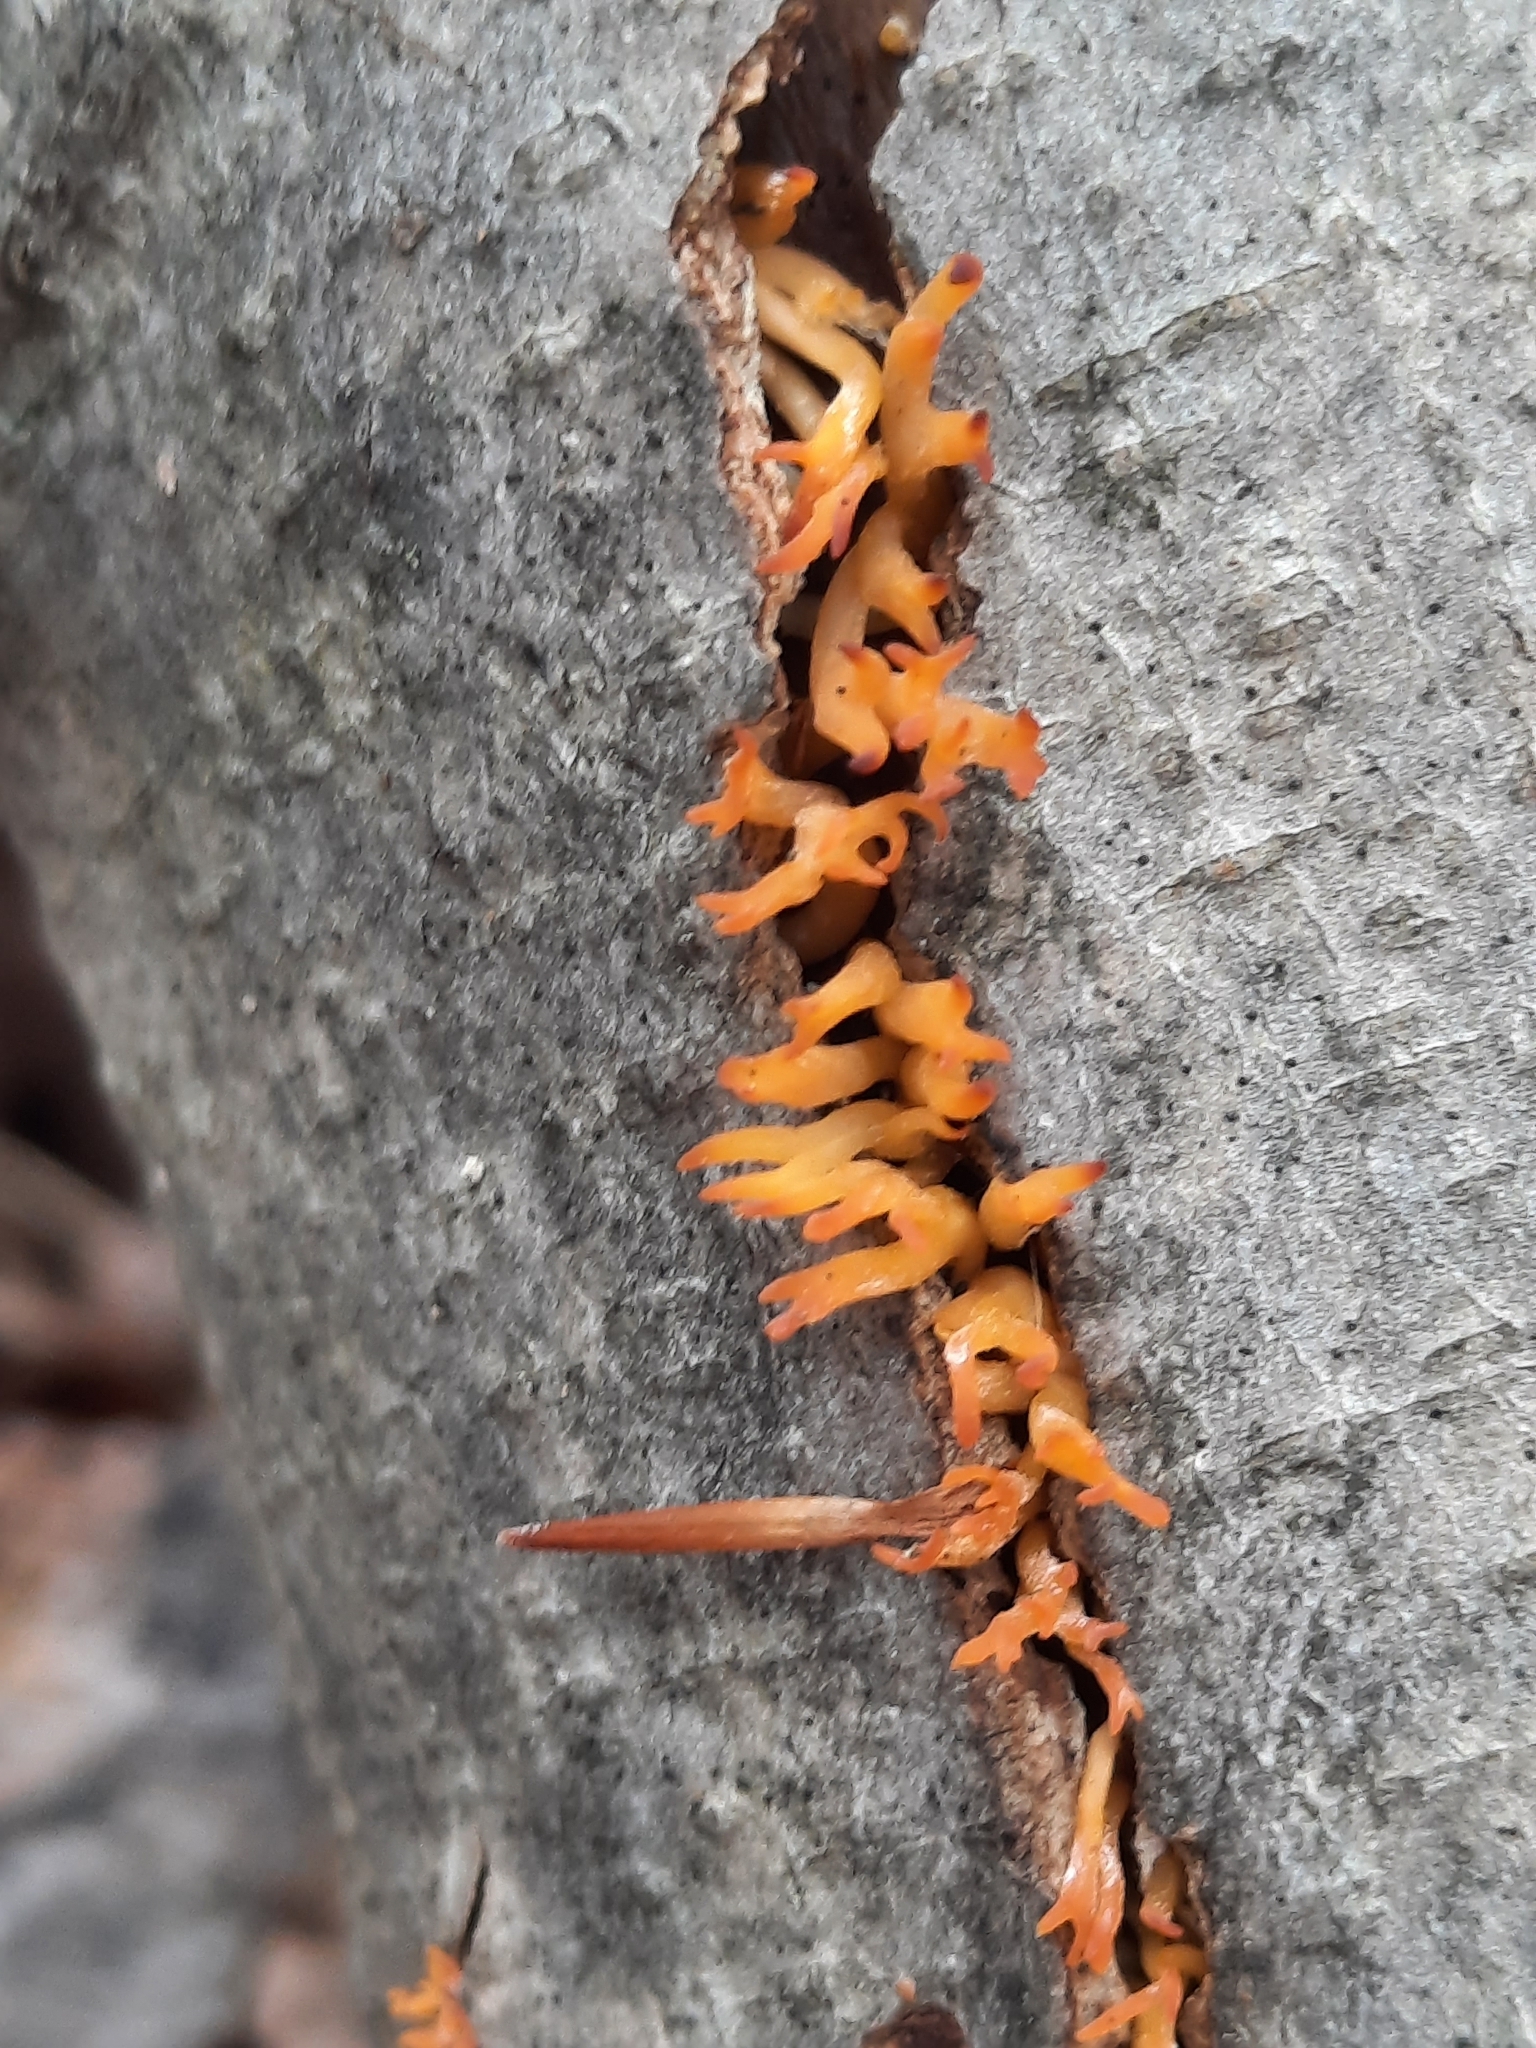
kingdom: Fungi
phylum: Basidiomycota
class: Dacrymycetes
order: Dacrymycetales
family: Dacrymycetaceae
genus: Calocera
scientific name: Calocera cornea
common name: Small stagshorn
